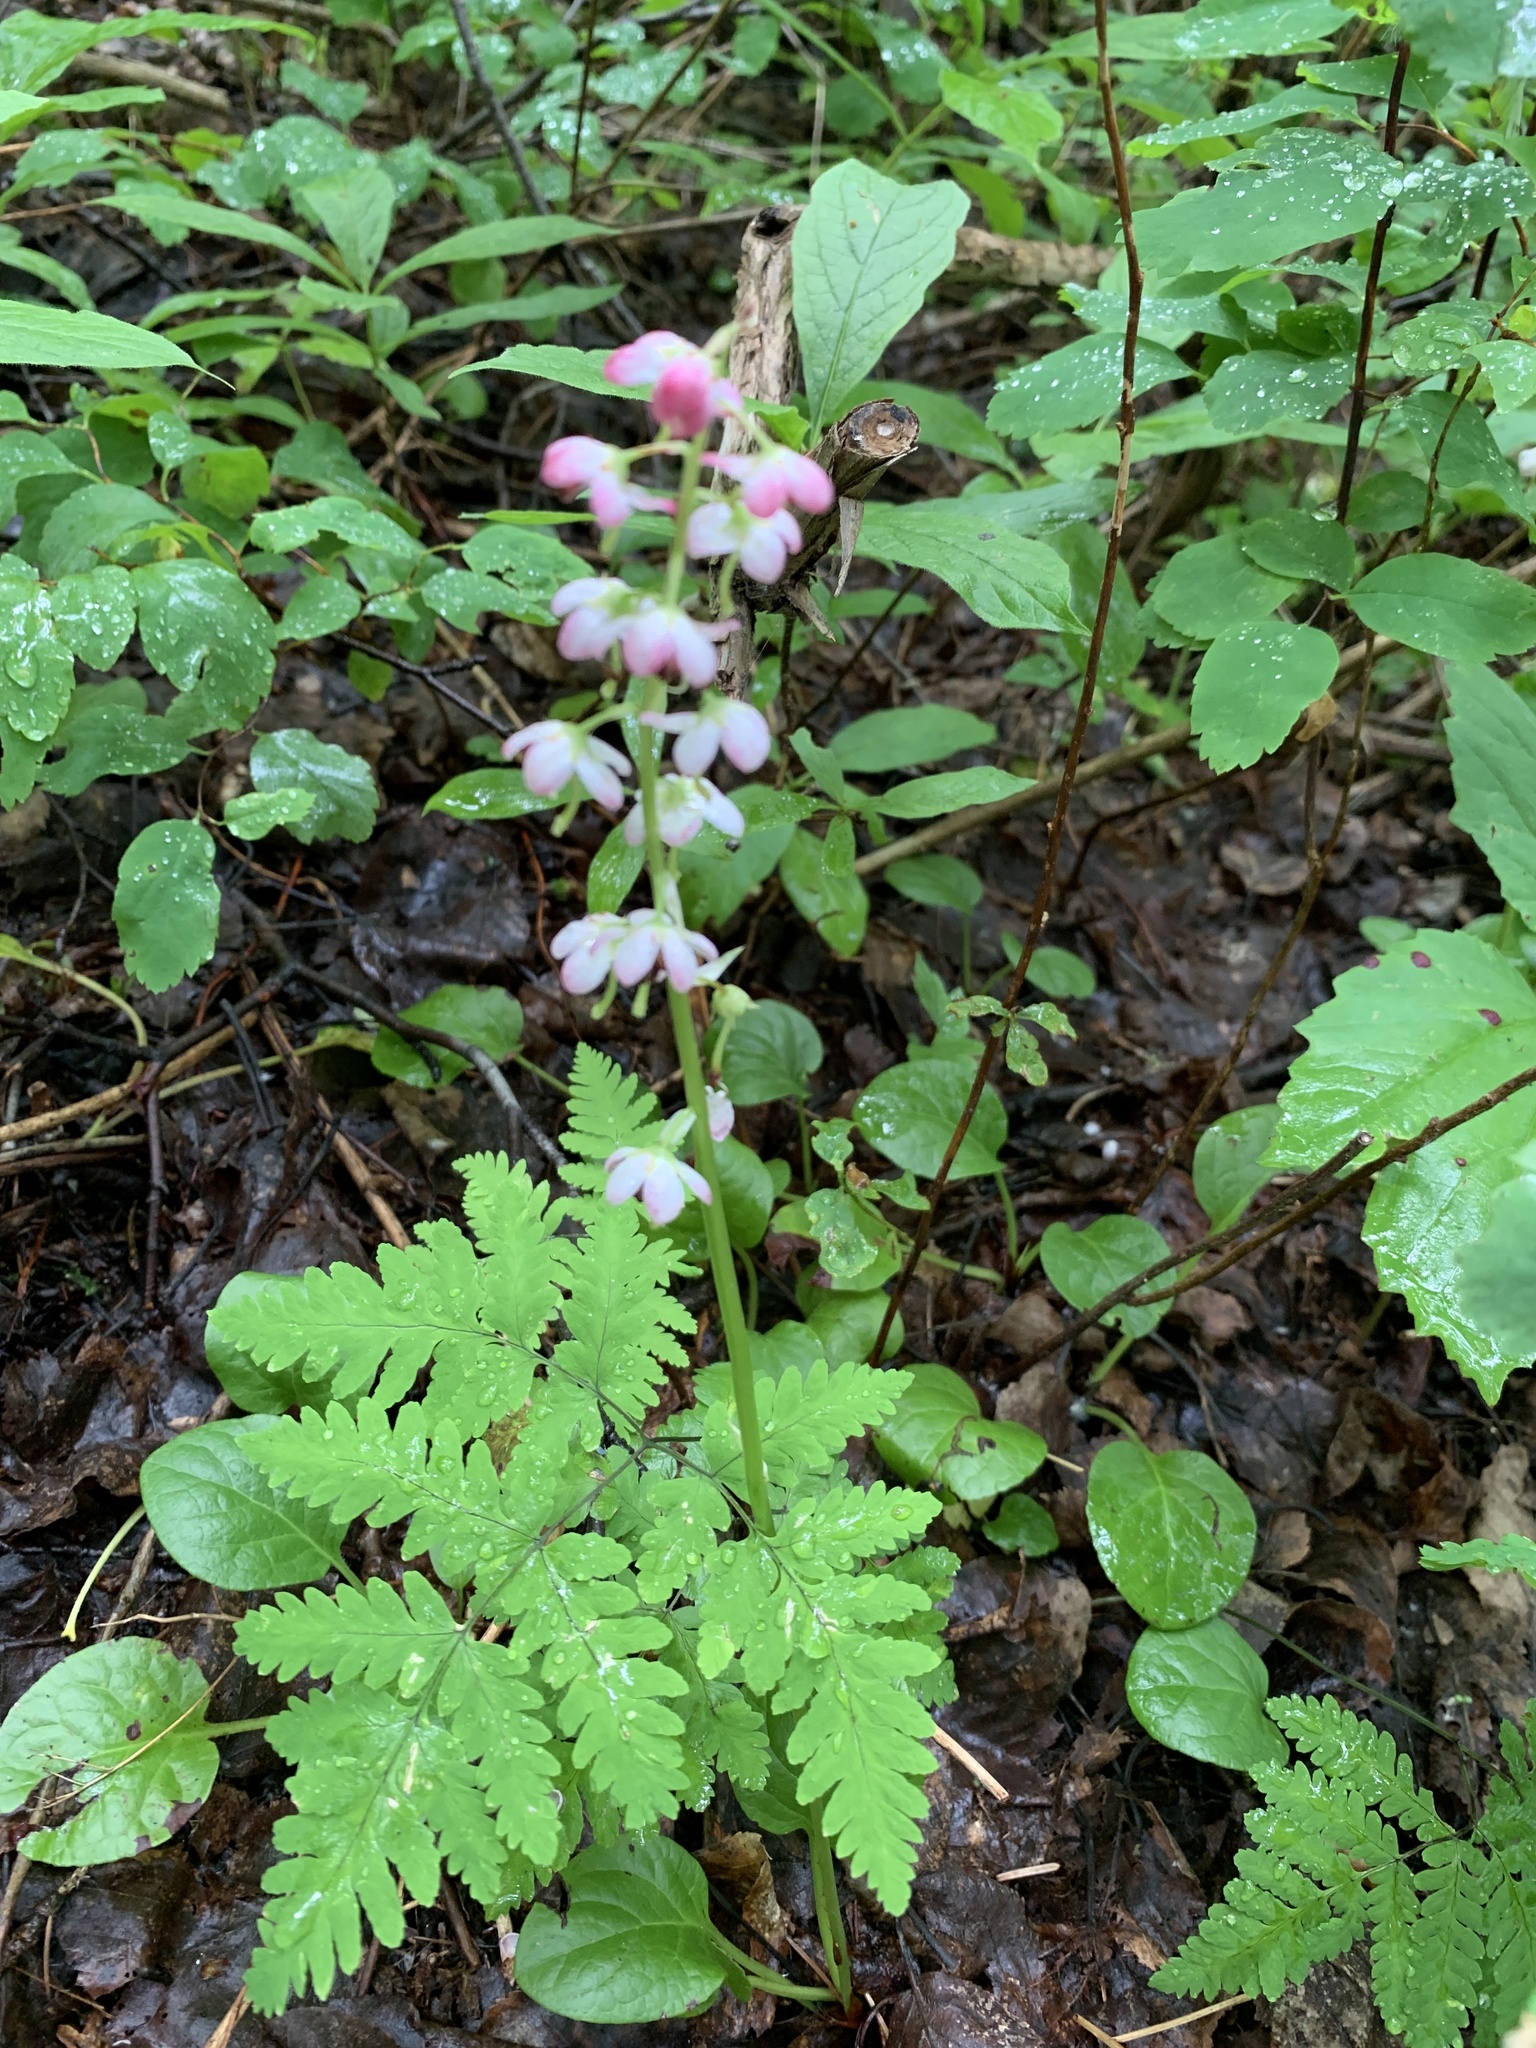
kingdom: Plantae
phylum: Tracheophyta
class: Magnoliopsida
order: Ericales
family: Ericaceae
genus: Pyrola
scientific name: Pyrola asarifolia
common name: Bog wintergreen
